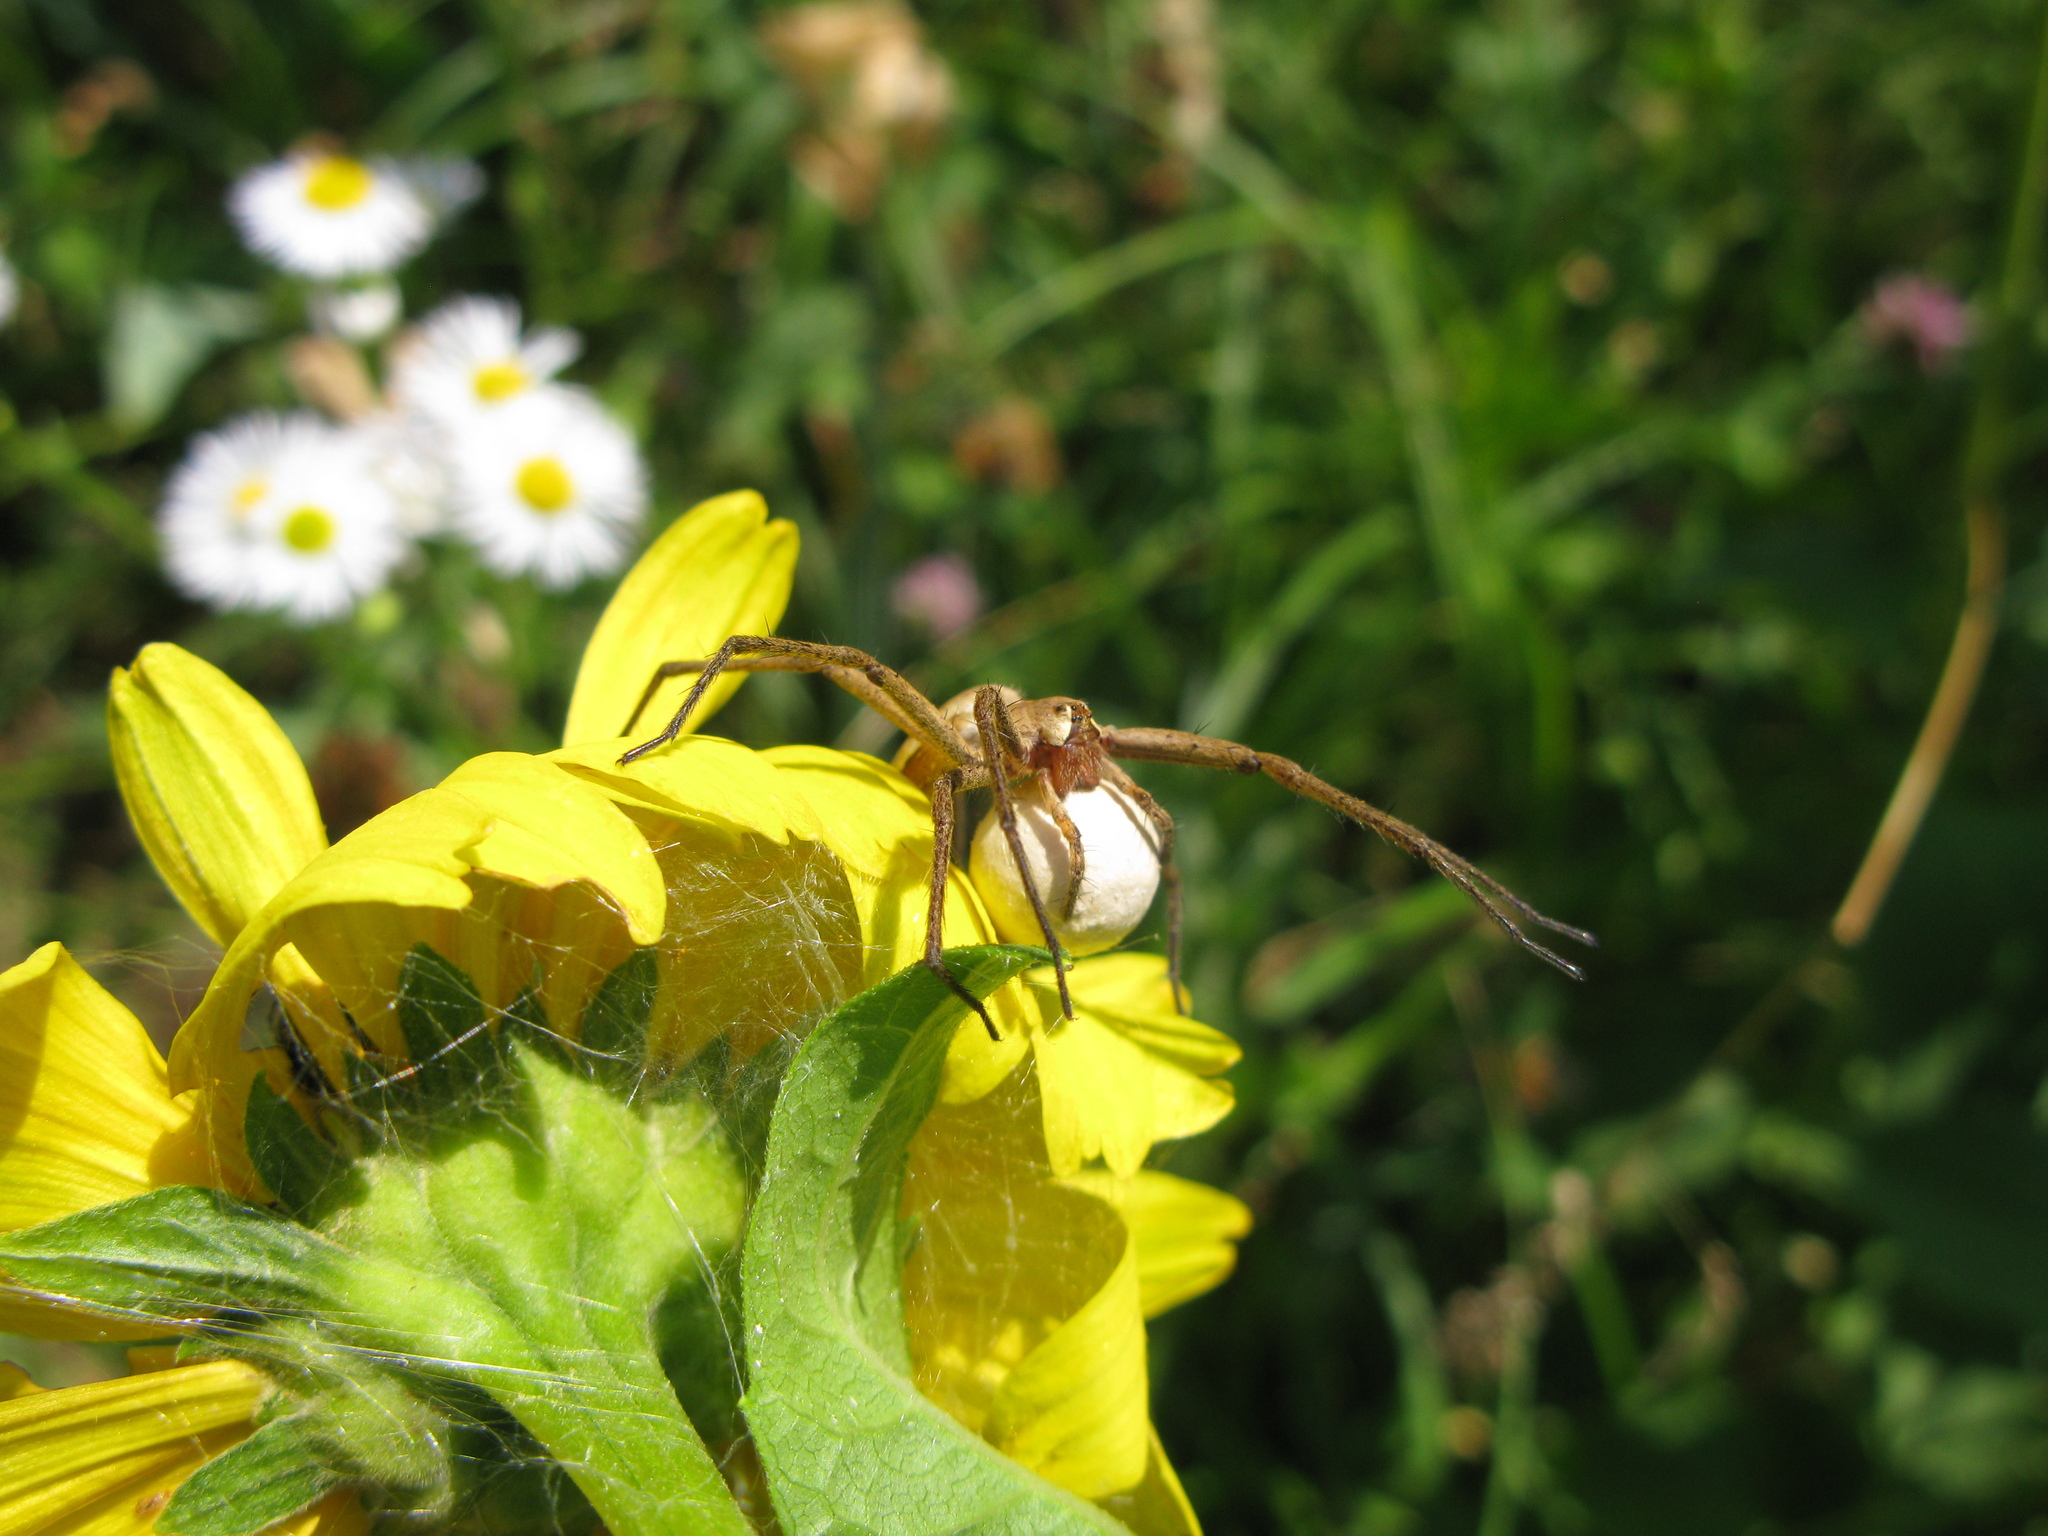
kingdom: Animalia
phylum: Arthropoda
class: Arachnida
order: Araneae
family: Pisauridae
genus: Pisaura
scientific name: Pisaura
